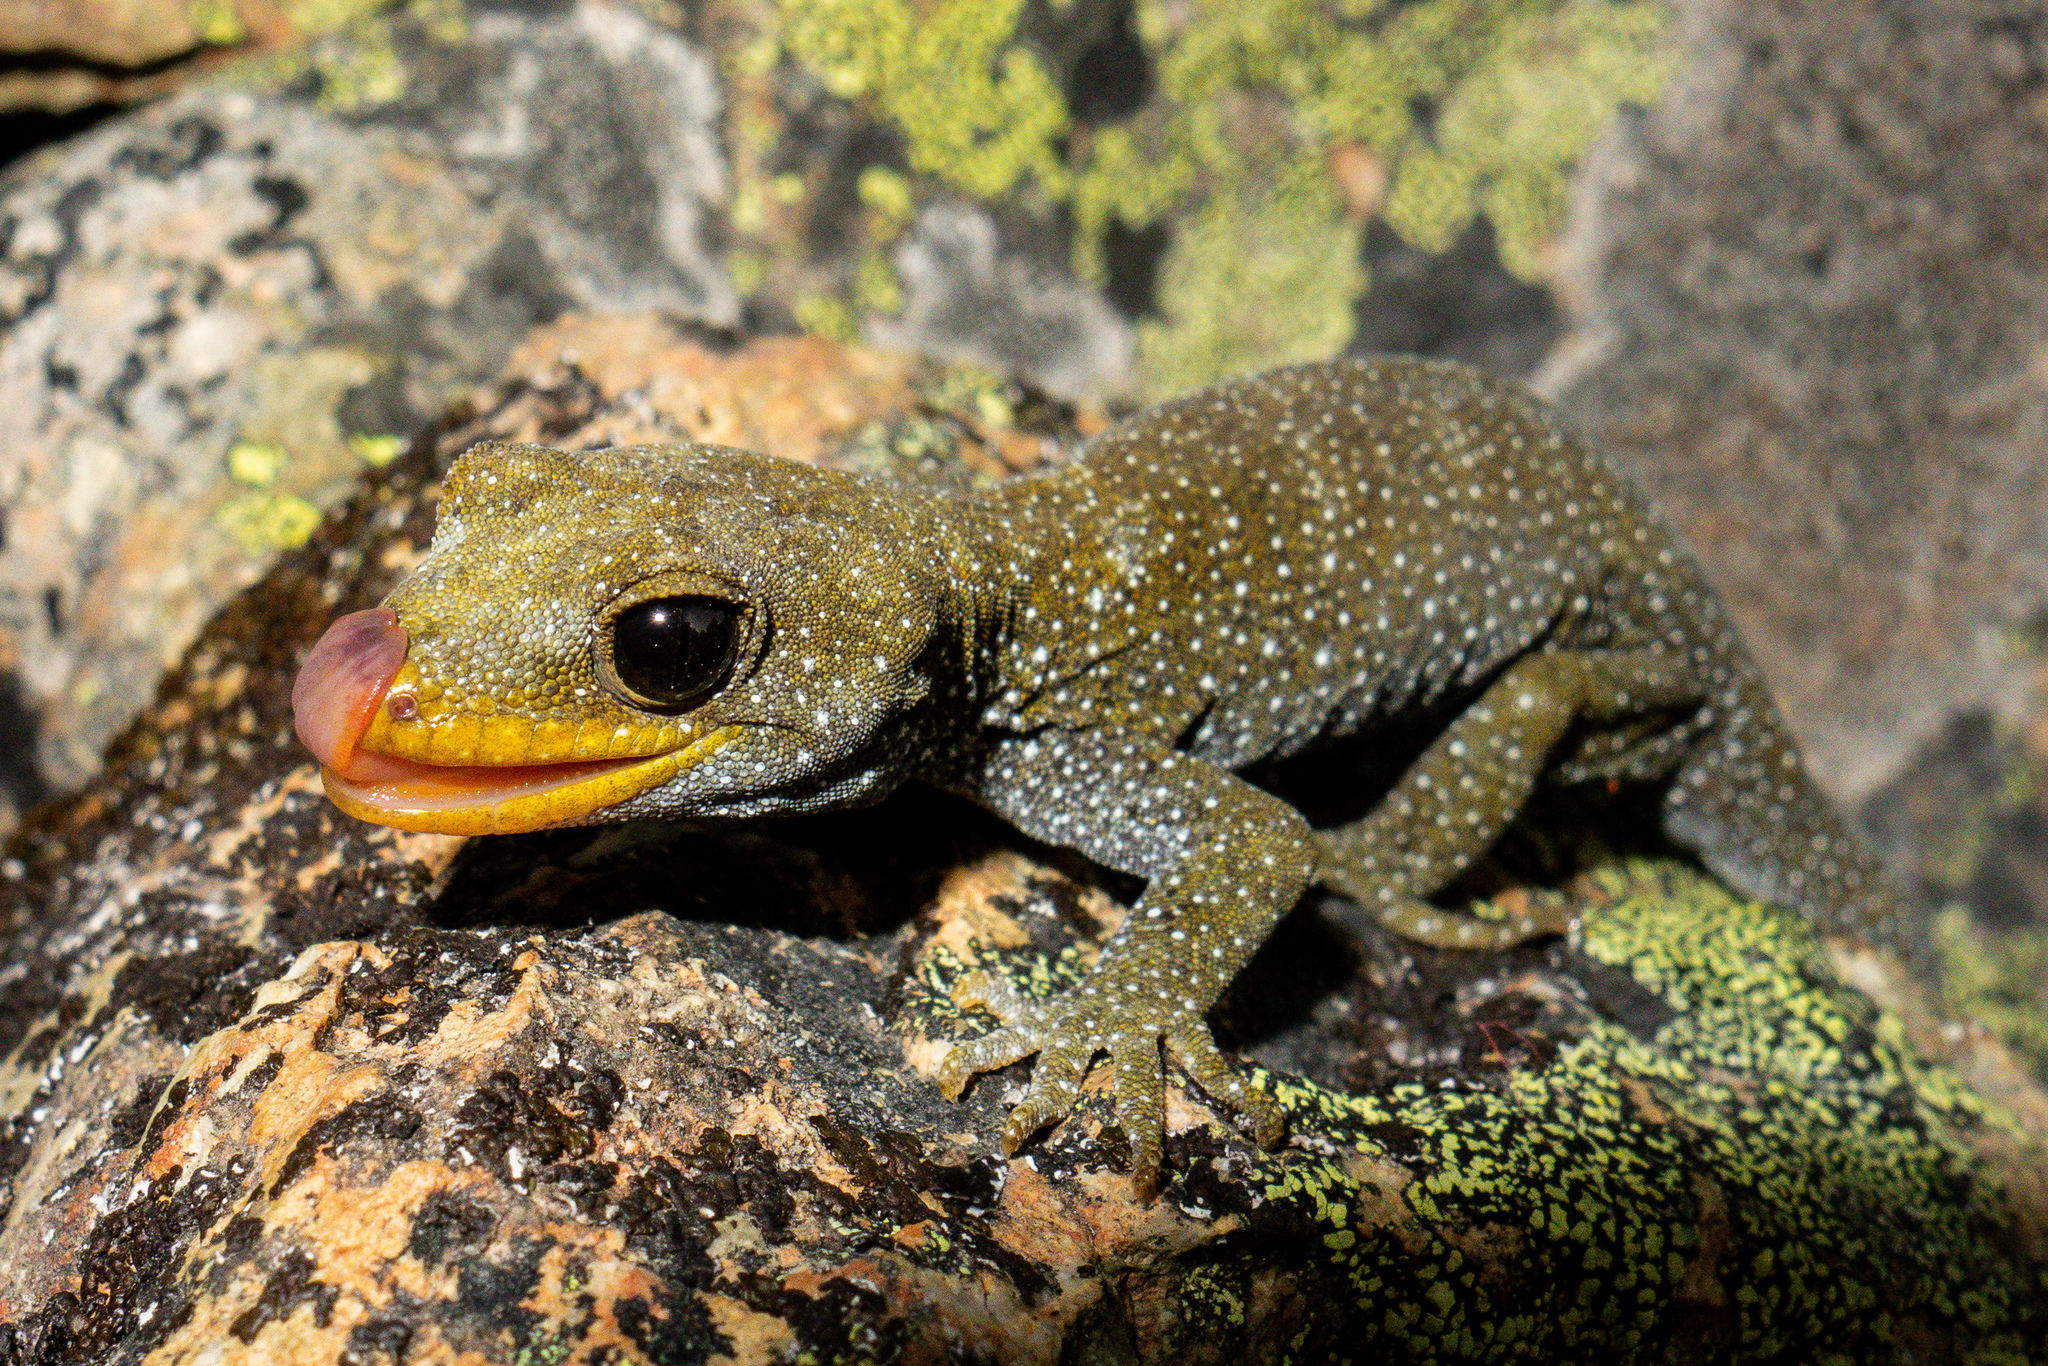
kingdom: Animalia
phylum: Chordata
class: Squamata
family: Diplodactylidae
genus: Mokopirirakau
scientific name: Mokopirirakau galaxias
